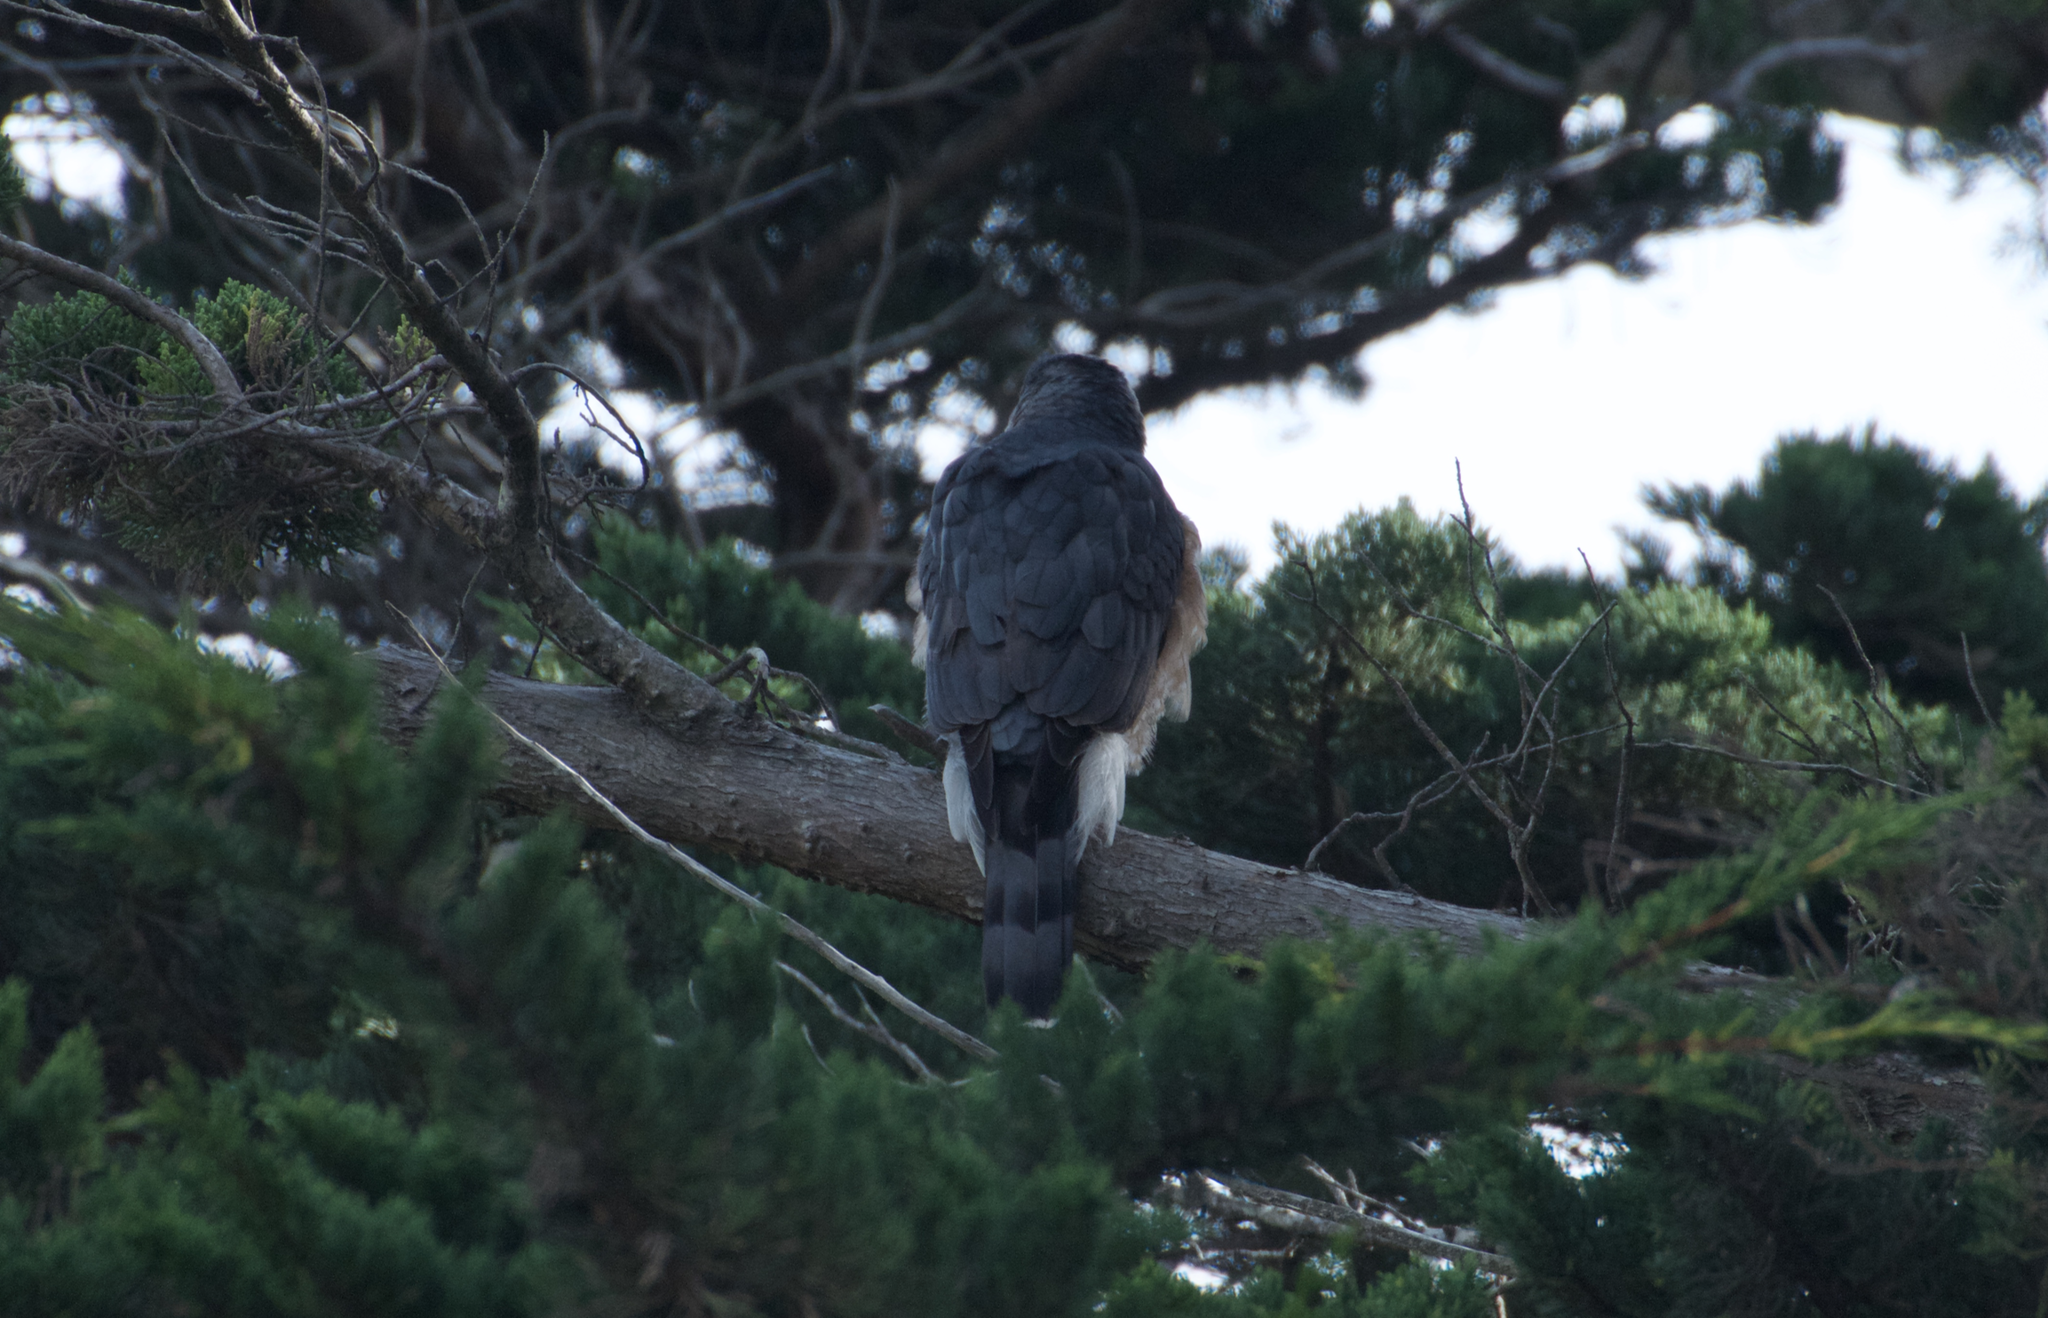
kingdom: Animalia
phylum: Chordata
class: Aves
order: Accipitriformes
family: Accipitridae
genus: Accipiter
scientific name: Accipiter cooperii
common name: Cooper's hawk
